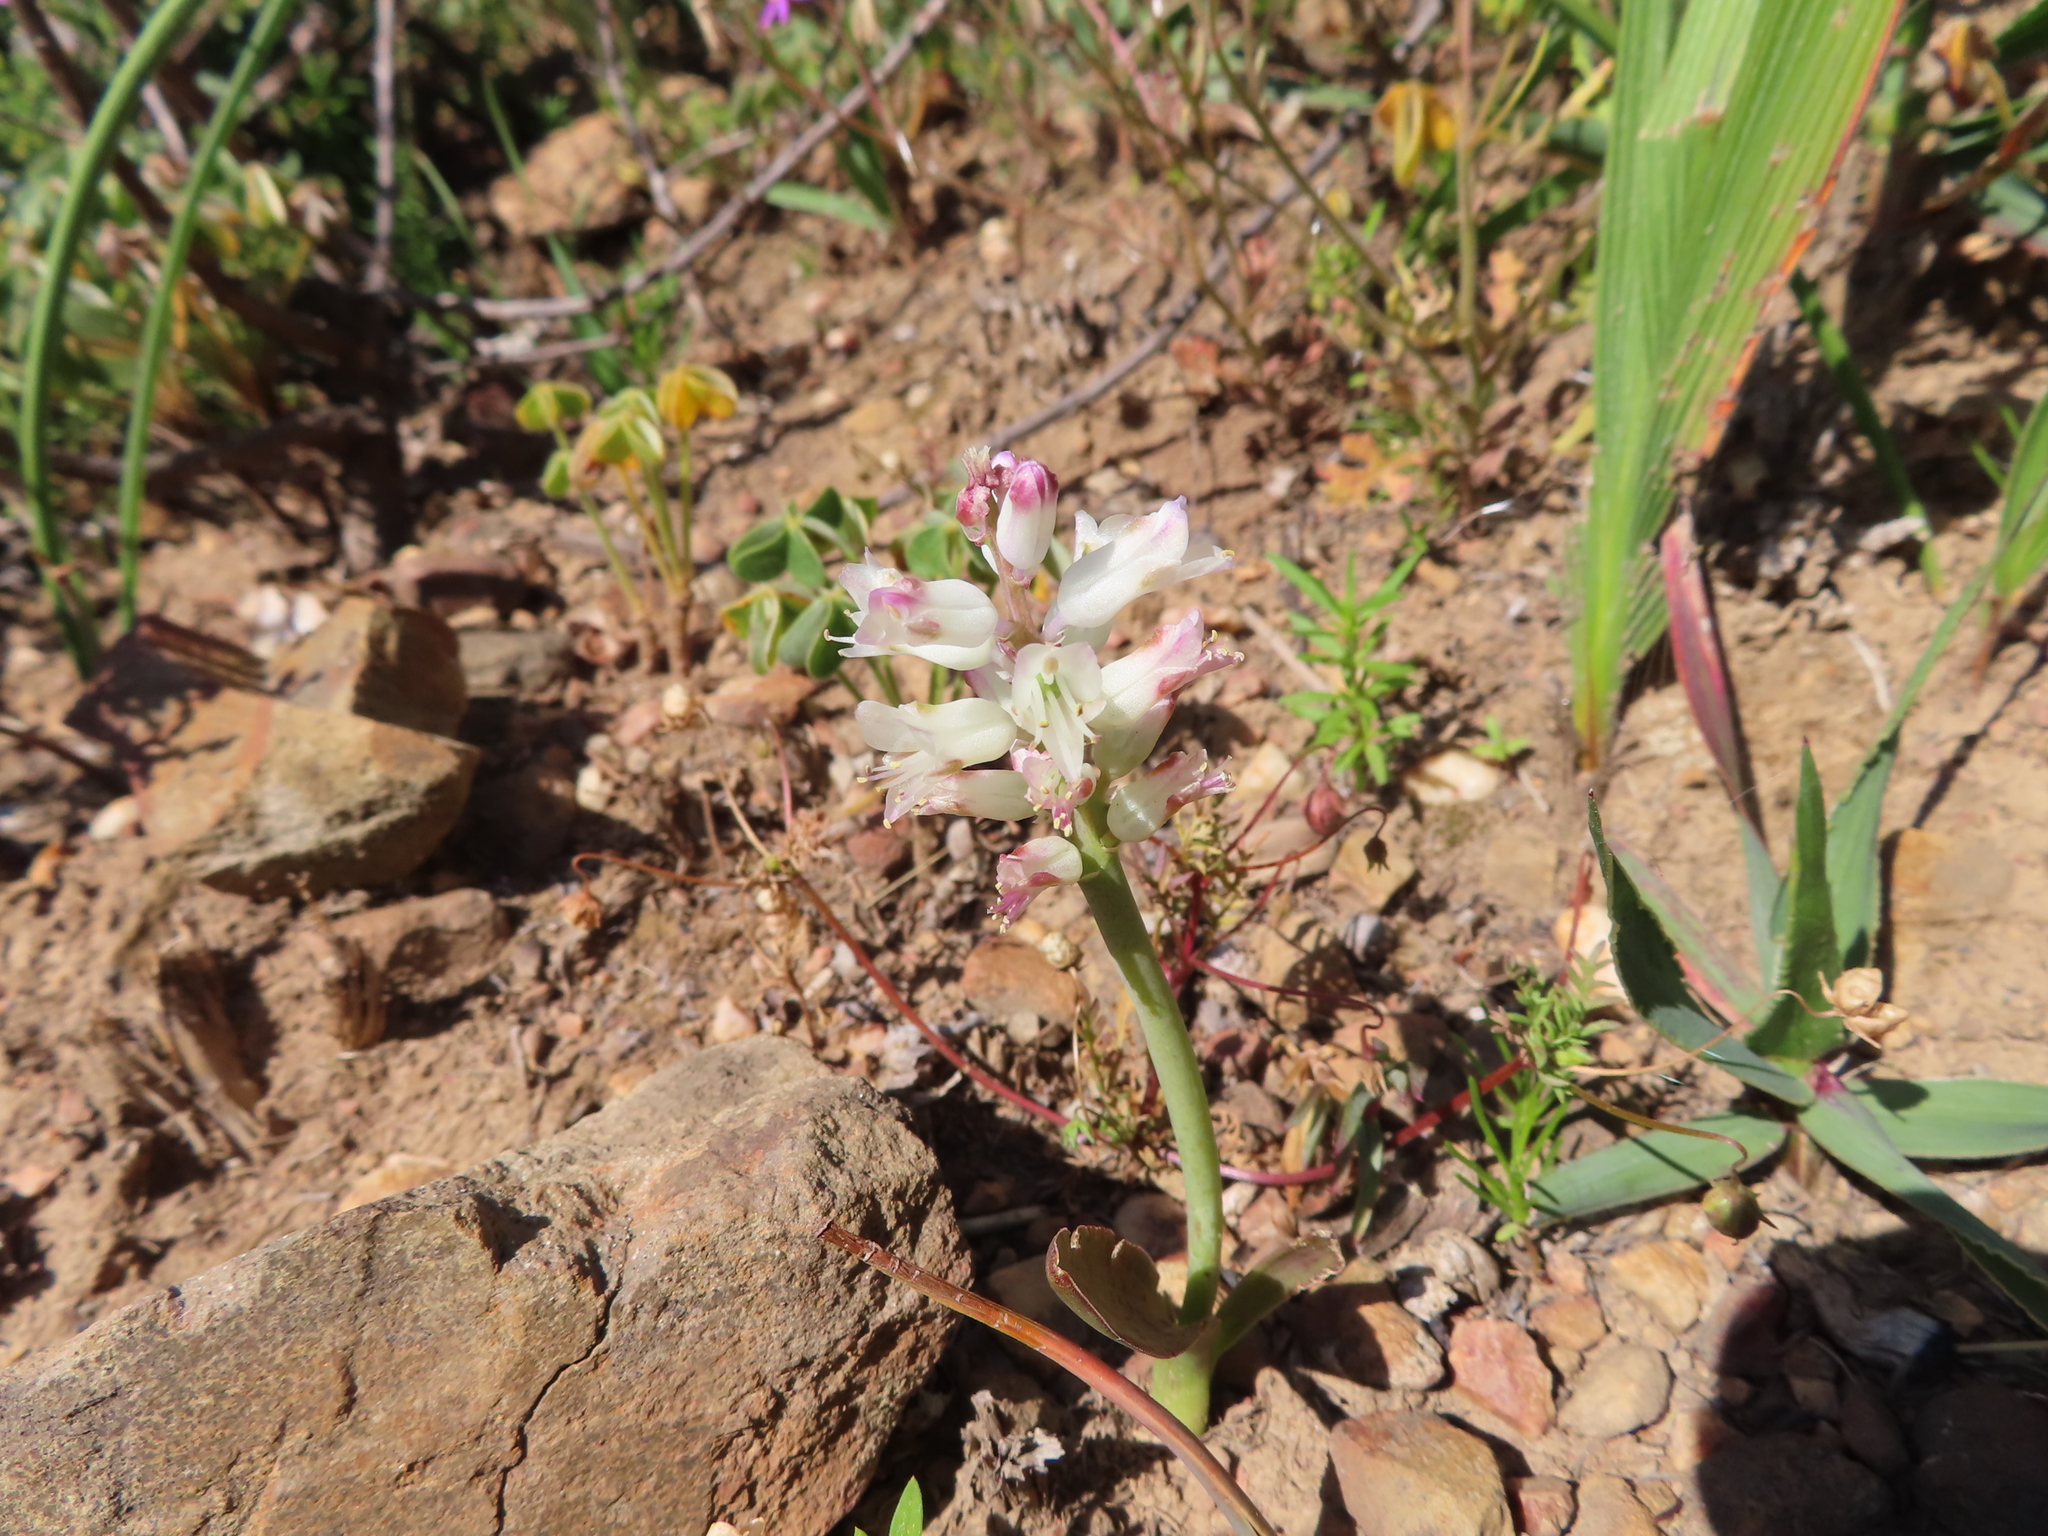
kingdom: Plantae
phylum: Tracheophyta
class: Liliopsida
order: Asparagales
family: Asparagaceae
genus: Lachenalia
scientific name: Lachenalia liliiflora
